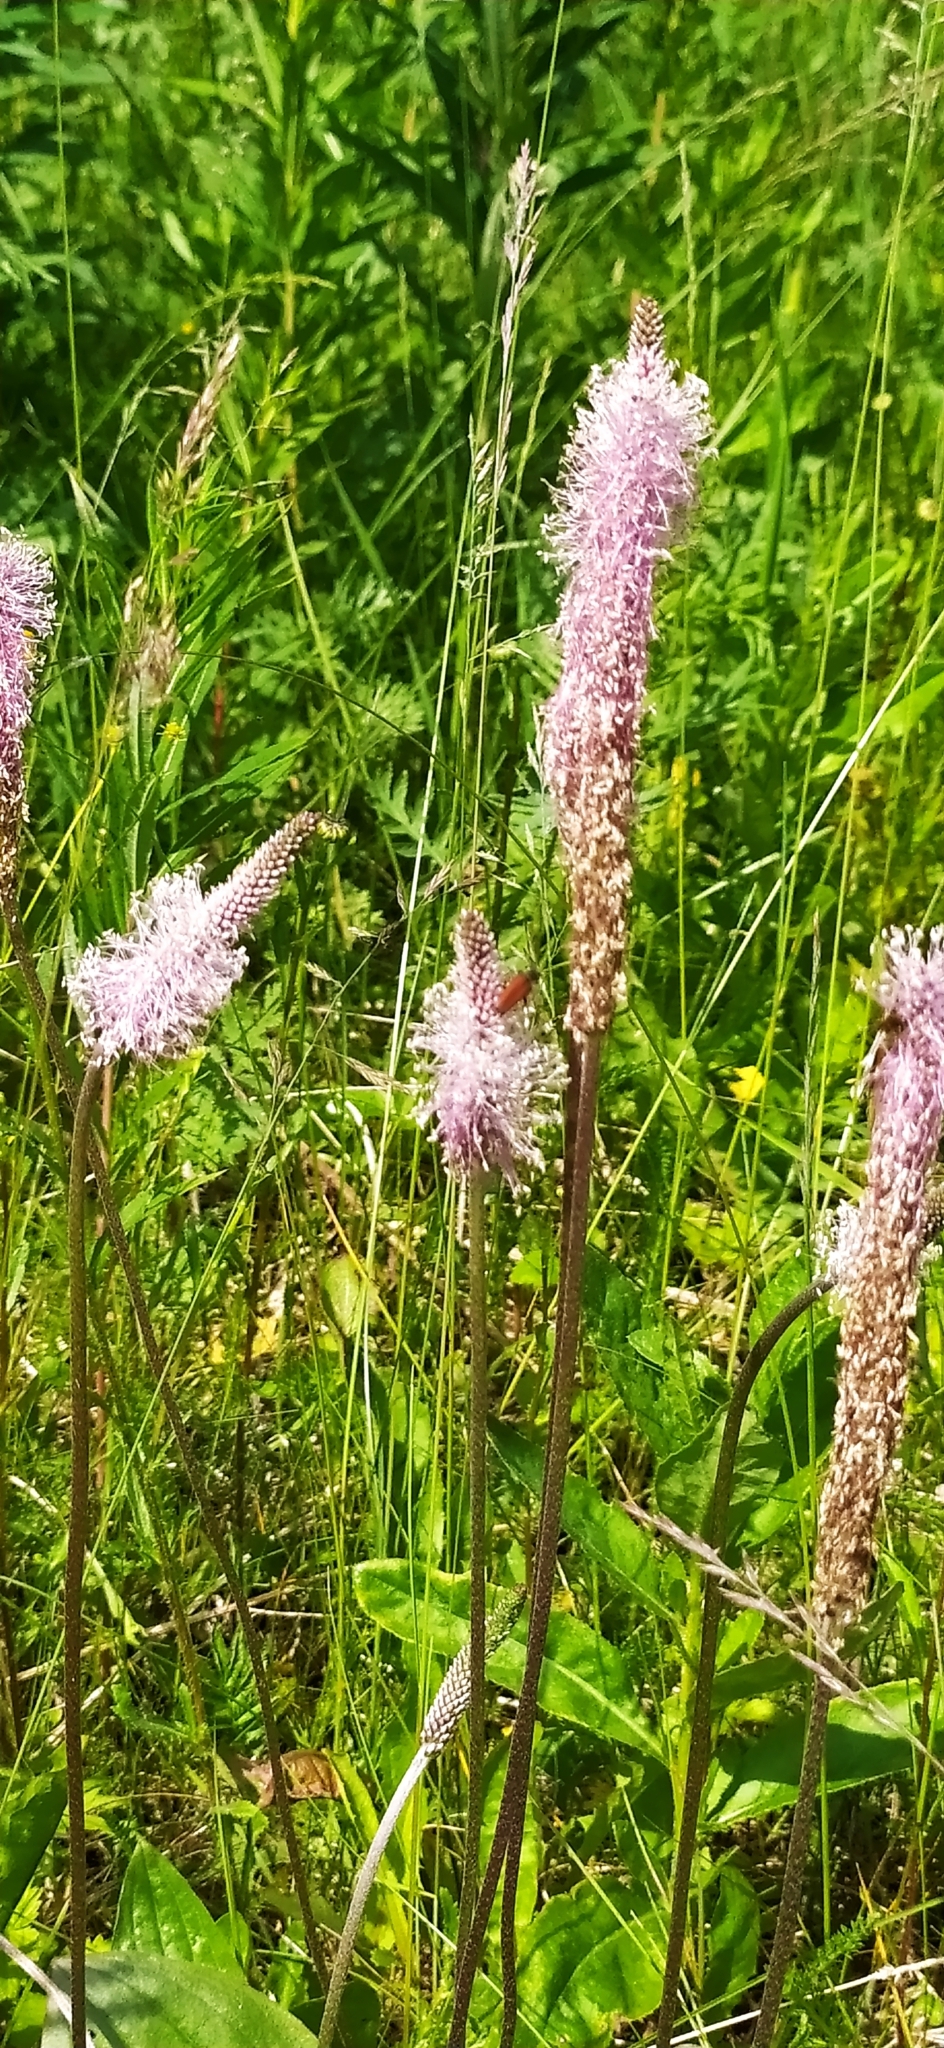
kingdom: Plantae
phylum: Tracheophyta
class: Magnoliopsida
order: Lamiales
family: Plantaginaceae
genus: Plantago
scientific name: Plantago media
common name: Hoary plantain
